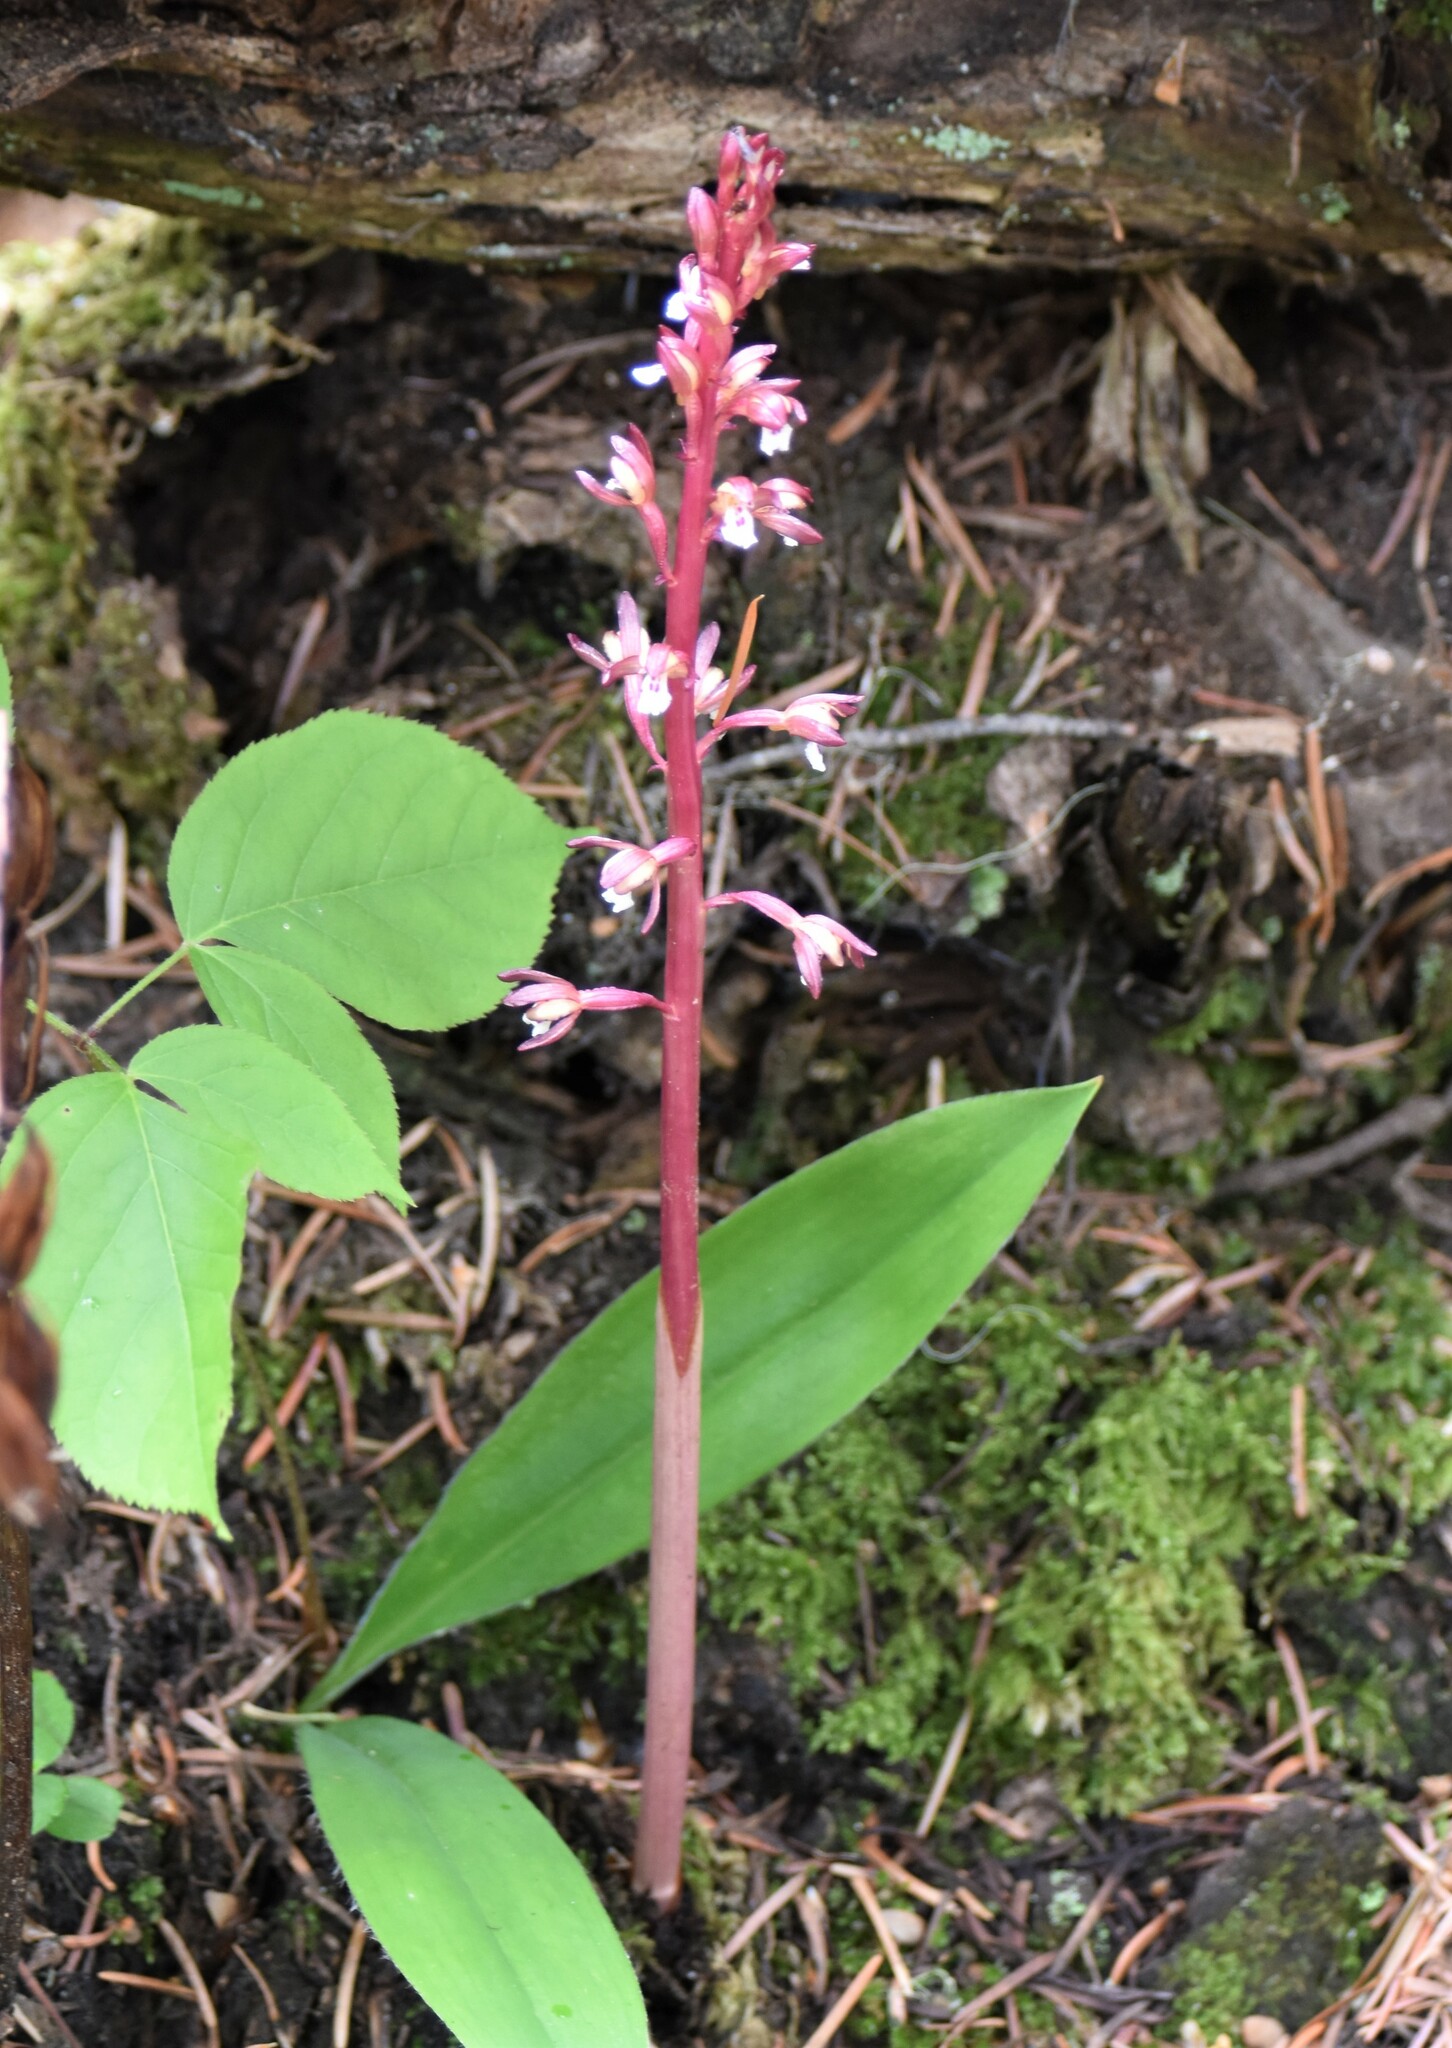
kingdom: Plantae
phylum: Tracheophyta
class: Liliopsida
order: Asparagales
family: Orchidaceae
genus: Corallorhiza
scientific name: Corallorhiza maculata
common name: Spotted coralroot
